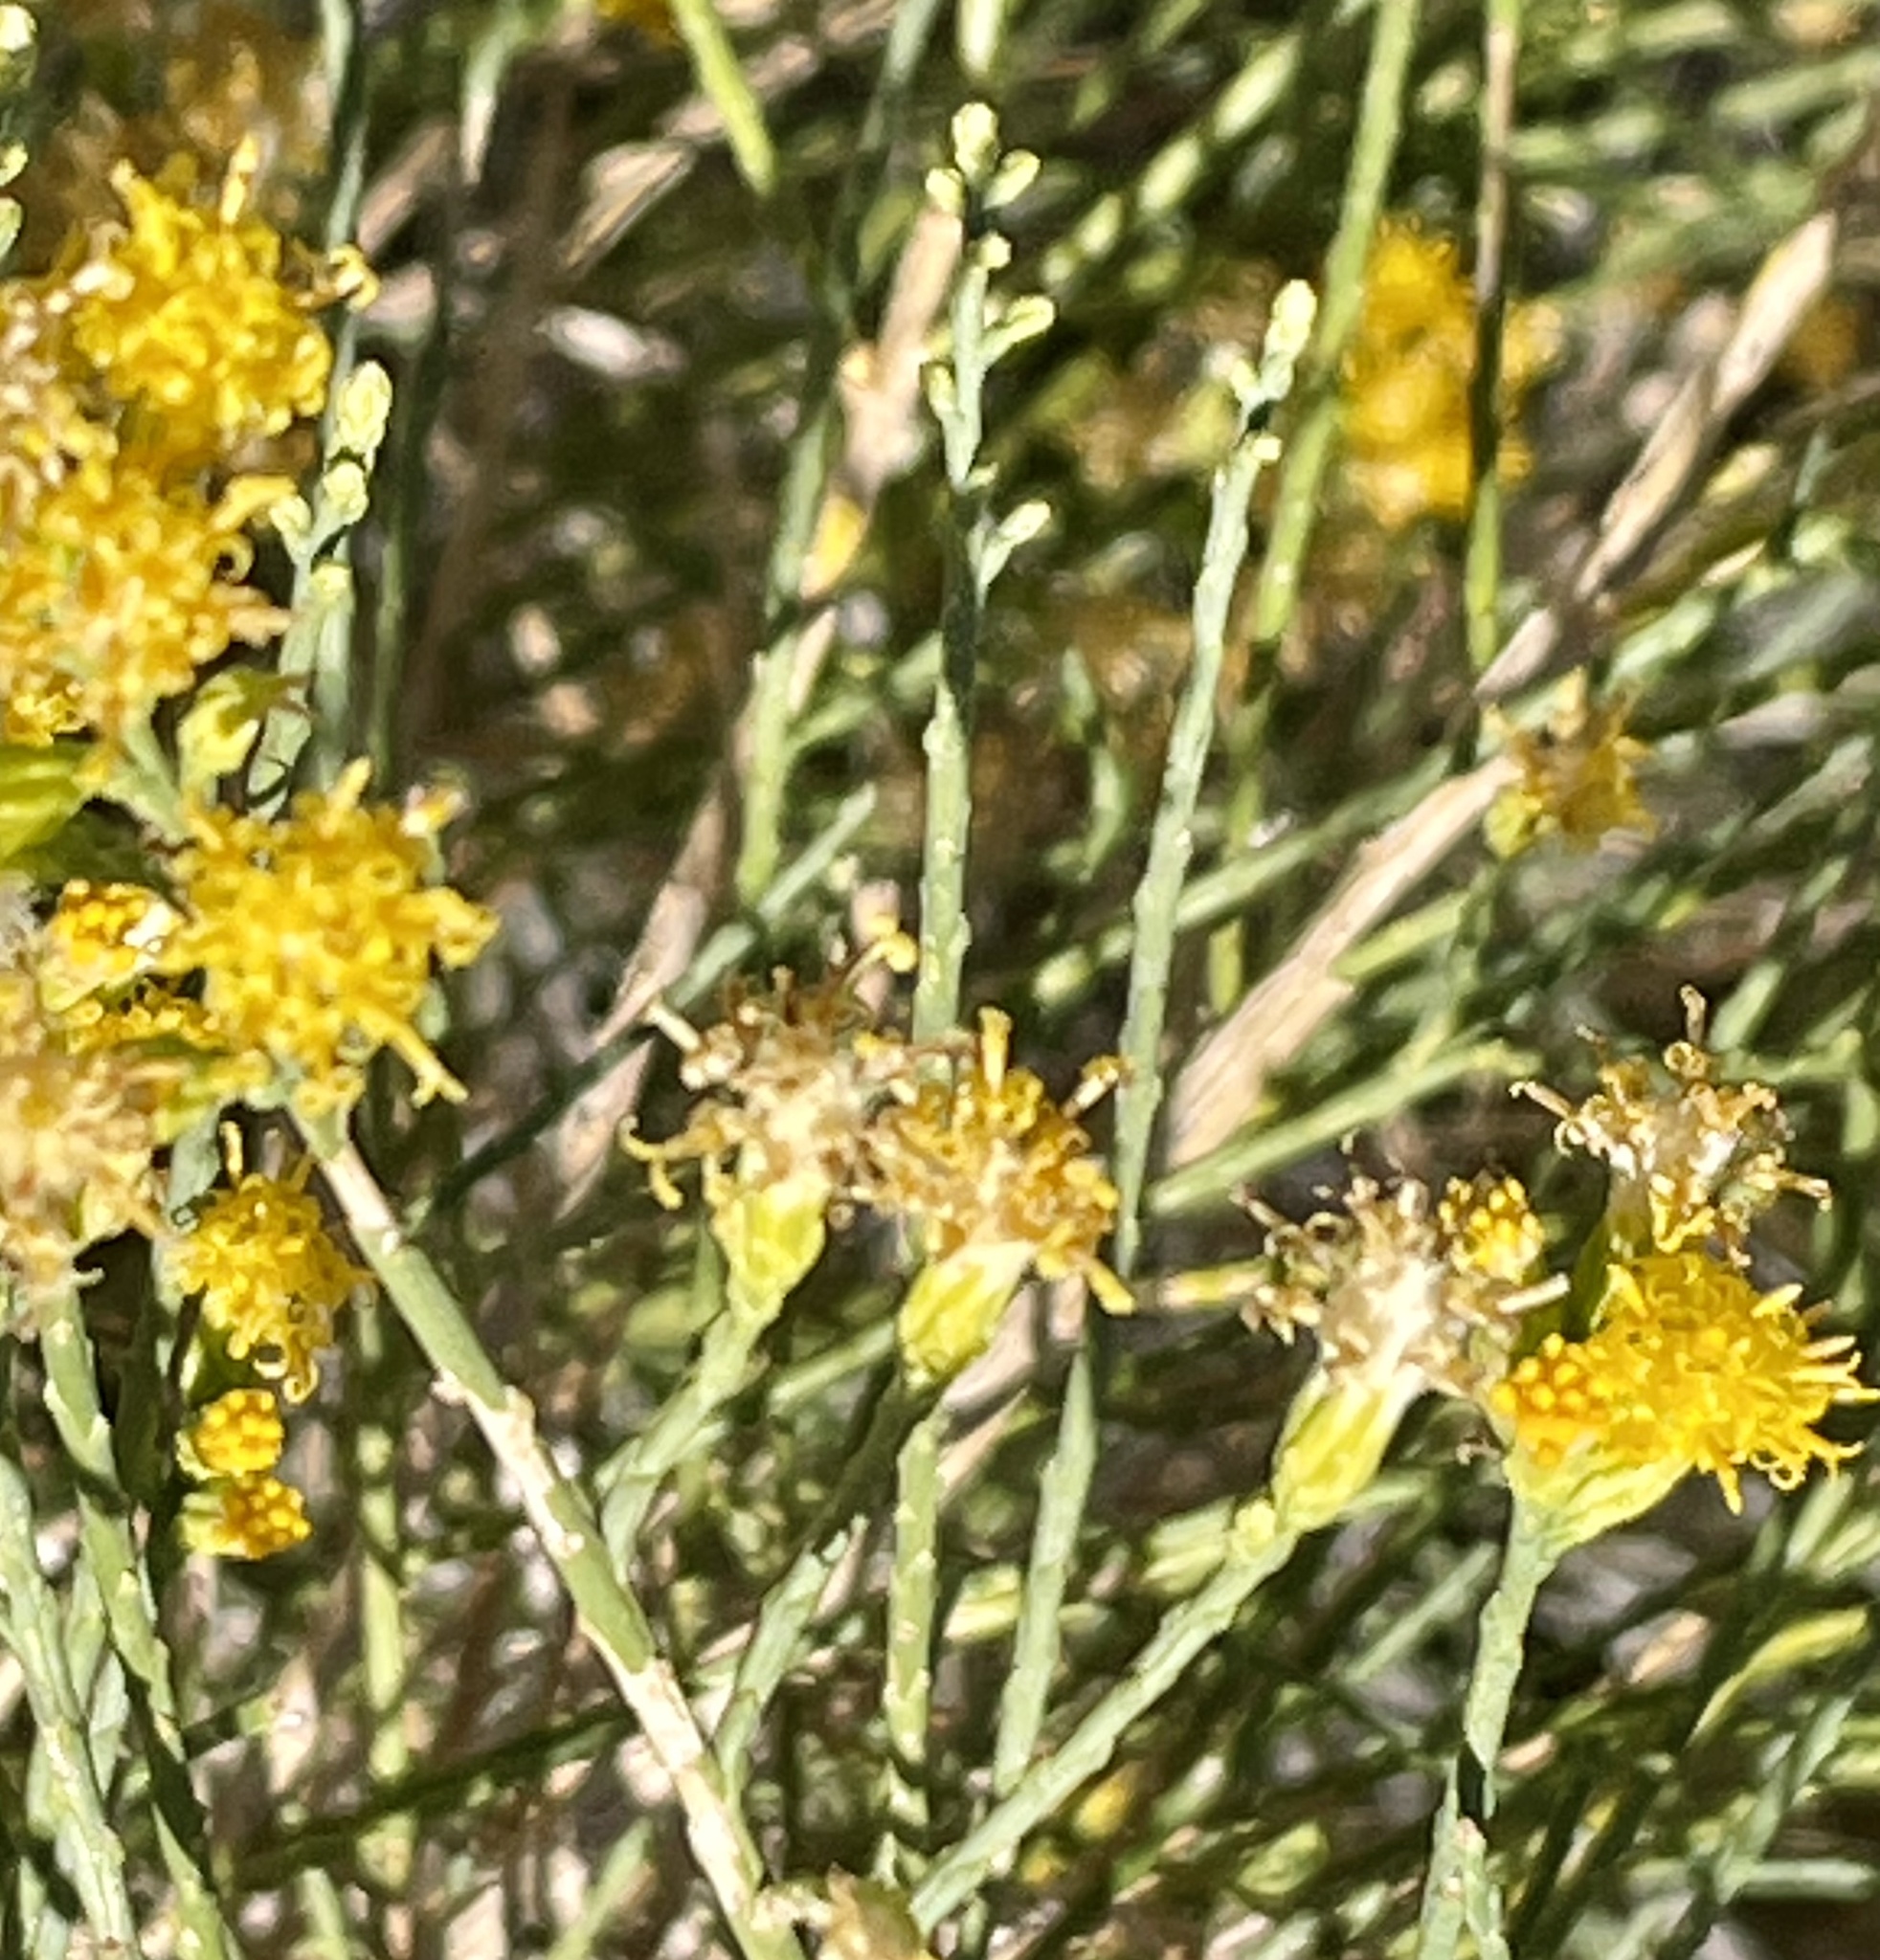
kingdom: Plantae
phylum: Tracheophyta
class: Magnoliopsida
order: Asterales
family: Asteraceae
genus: Lepidospartum
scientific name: Lepidospartum squamatum
